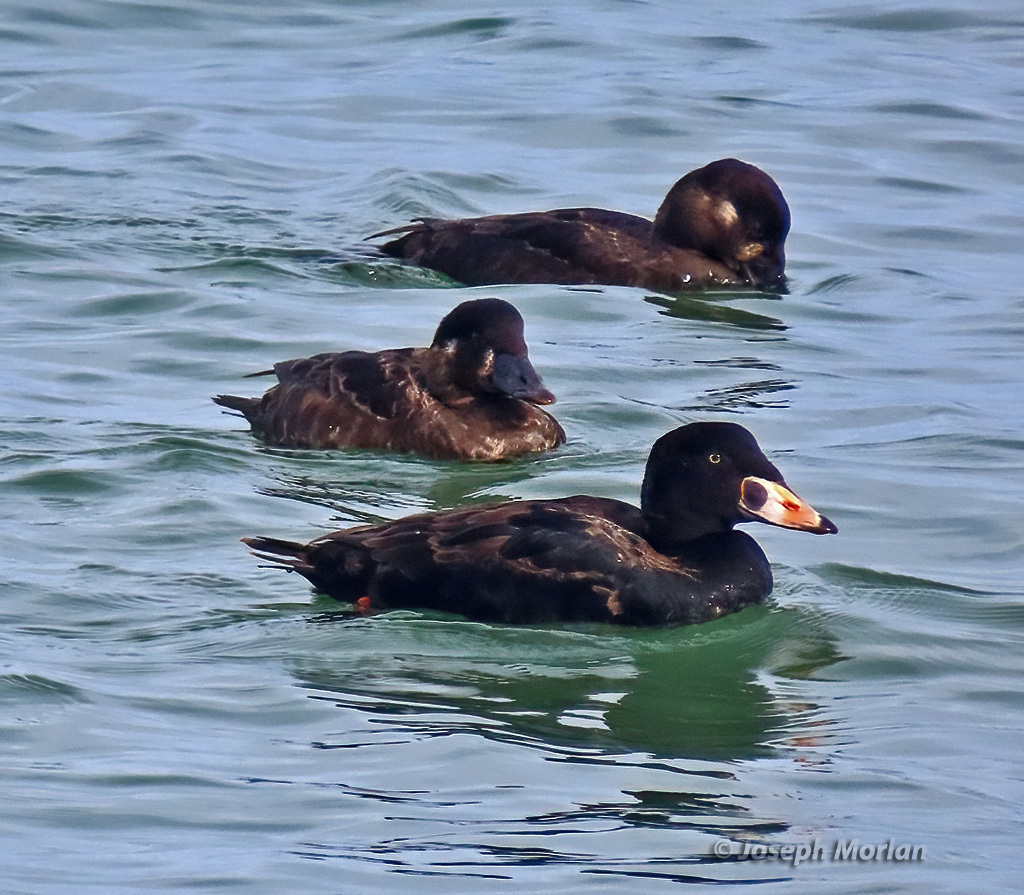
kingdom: Animalia
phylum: Chordata
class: Aves
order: Anseriformes
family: Anatidae
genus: Melanitta
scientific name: Melanitta perspicillata
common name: Surf scoter
